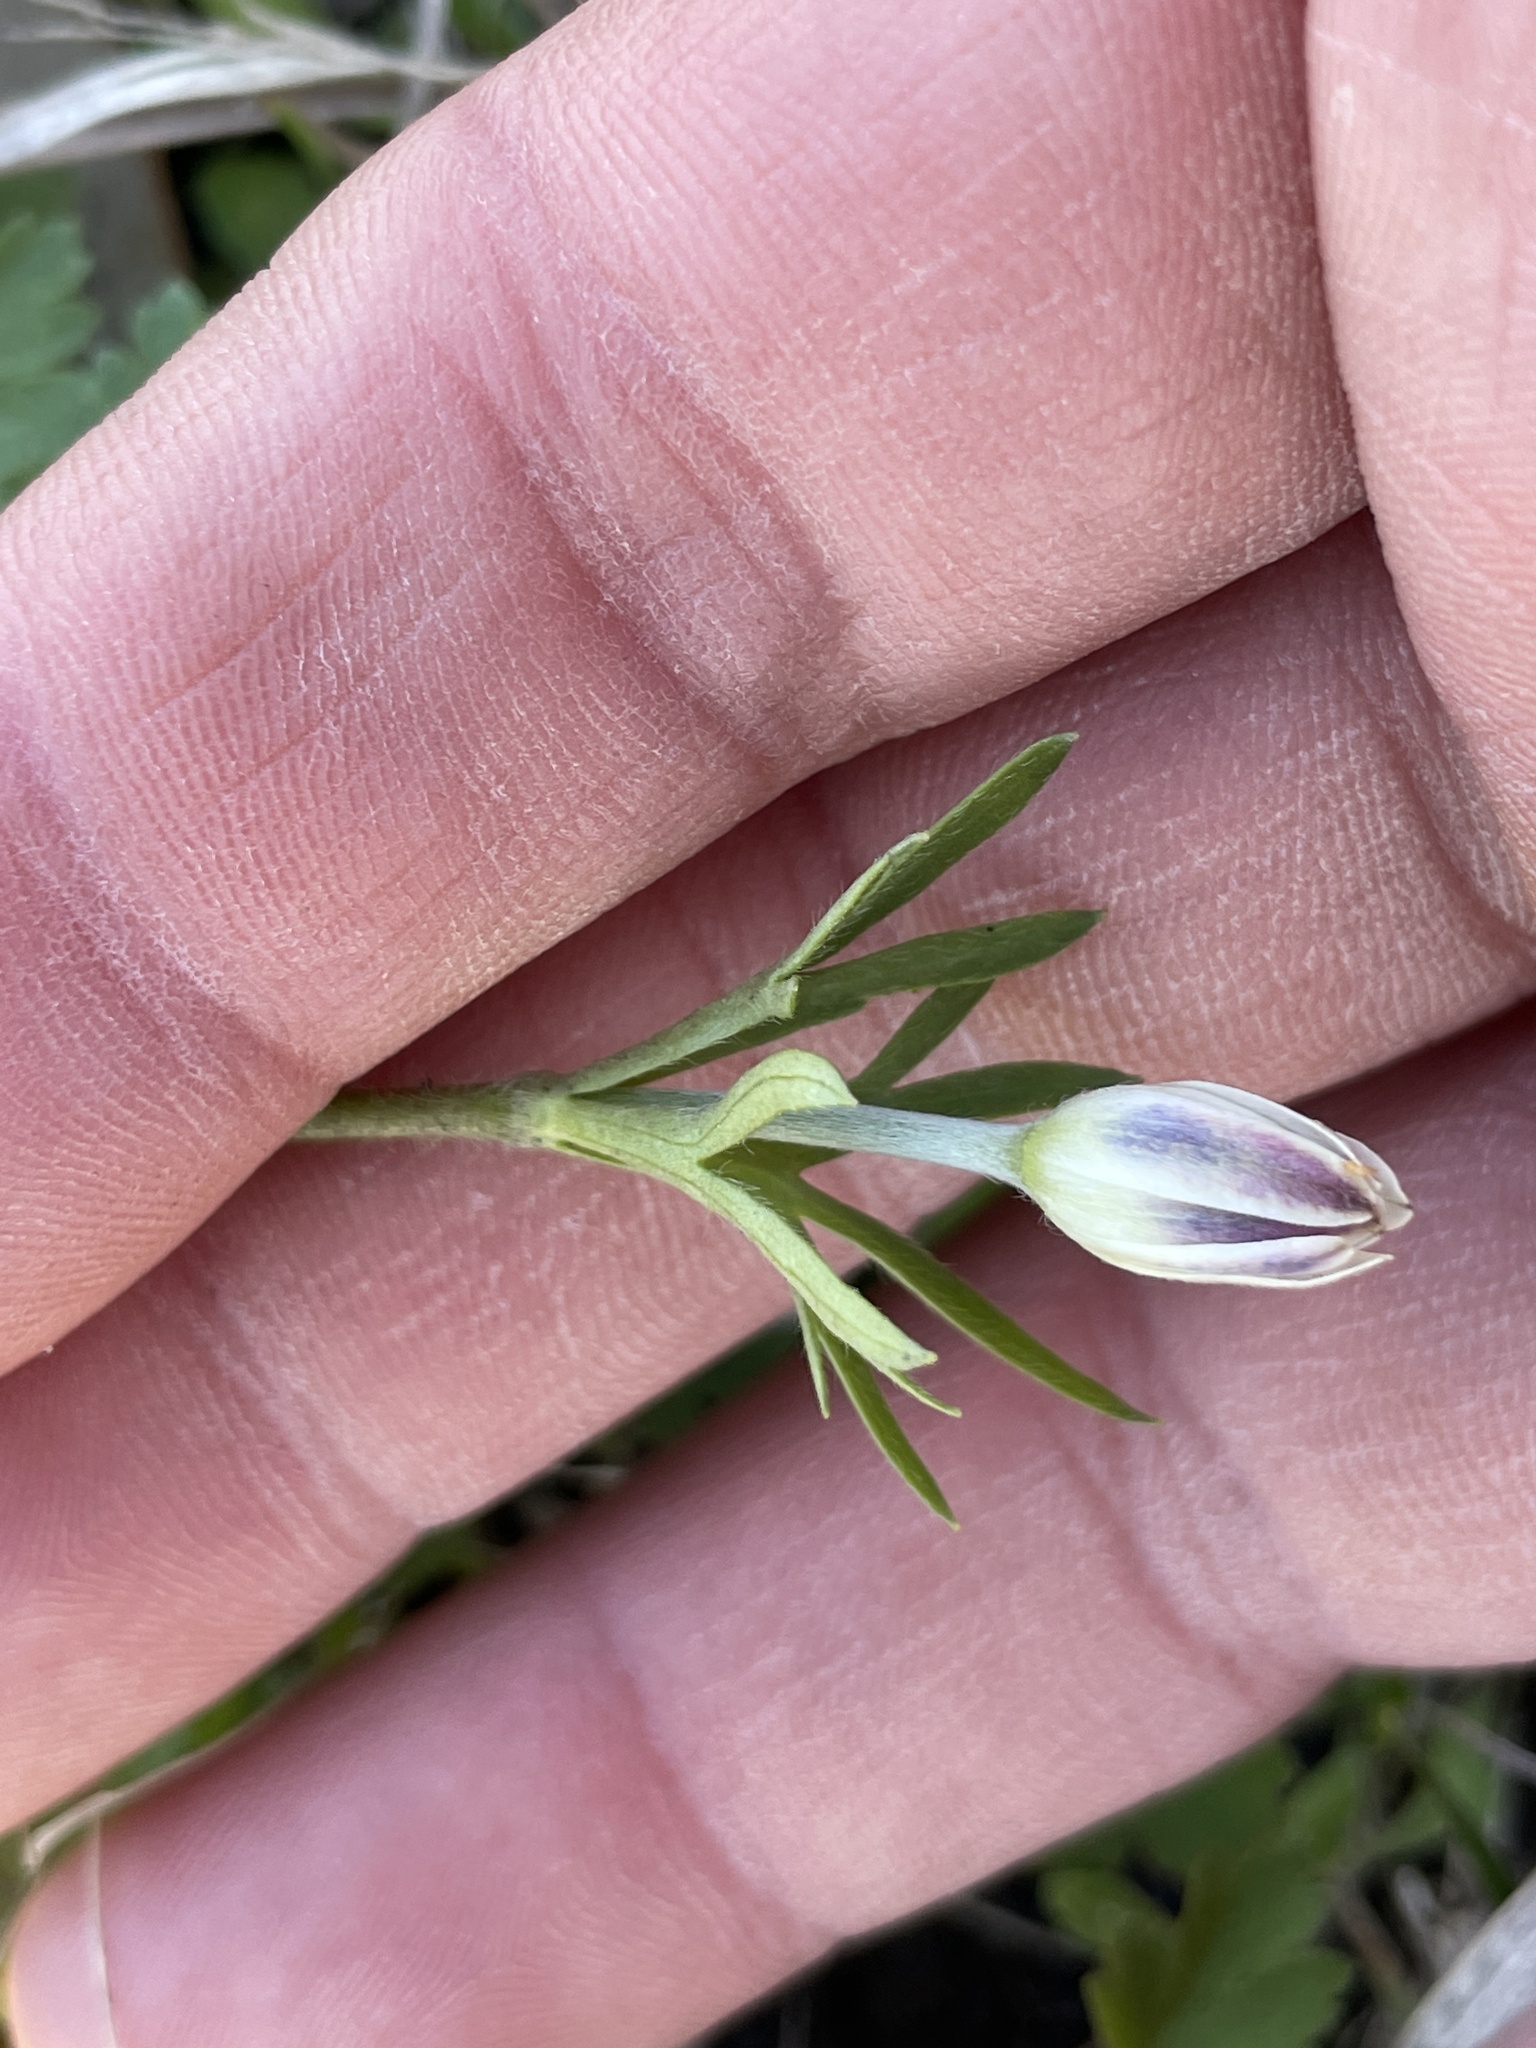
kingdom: Plantae
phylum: Tracheophyta
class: Magnoliopsida
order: Ranunculales
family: Ranunculaceae
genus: Anemone
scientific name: Anemone berlandieri
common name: Ten-petal anemone
